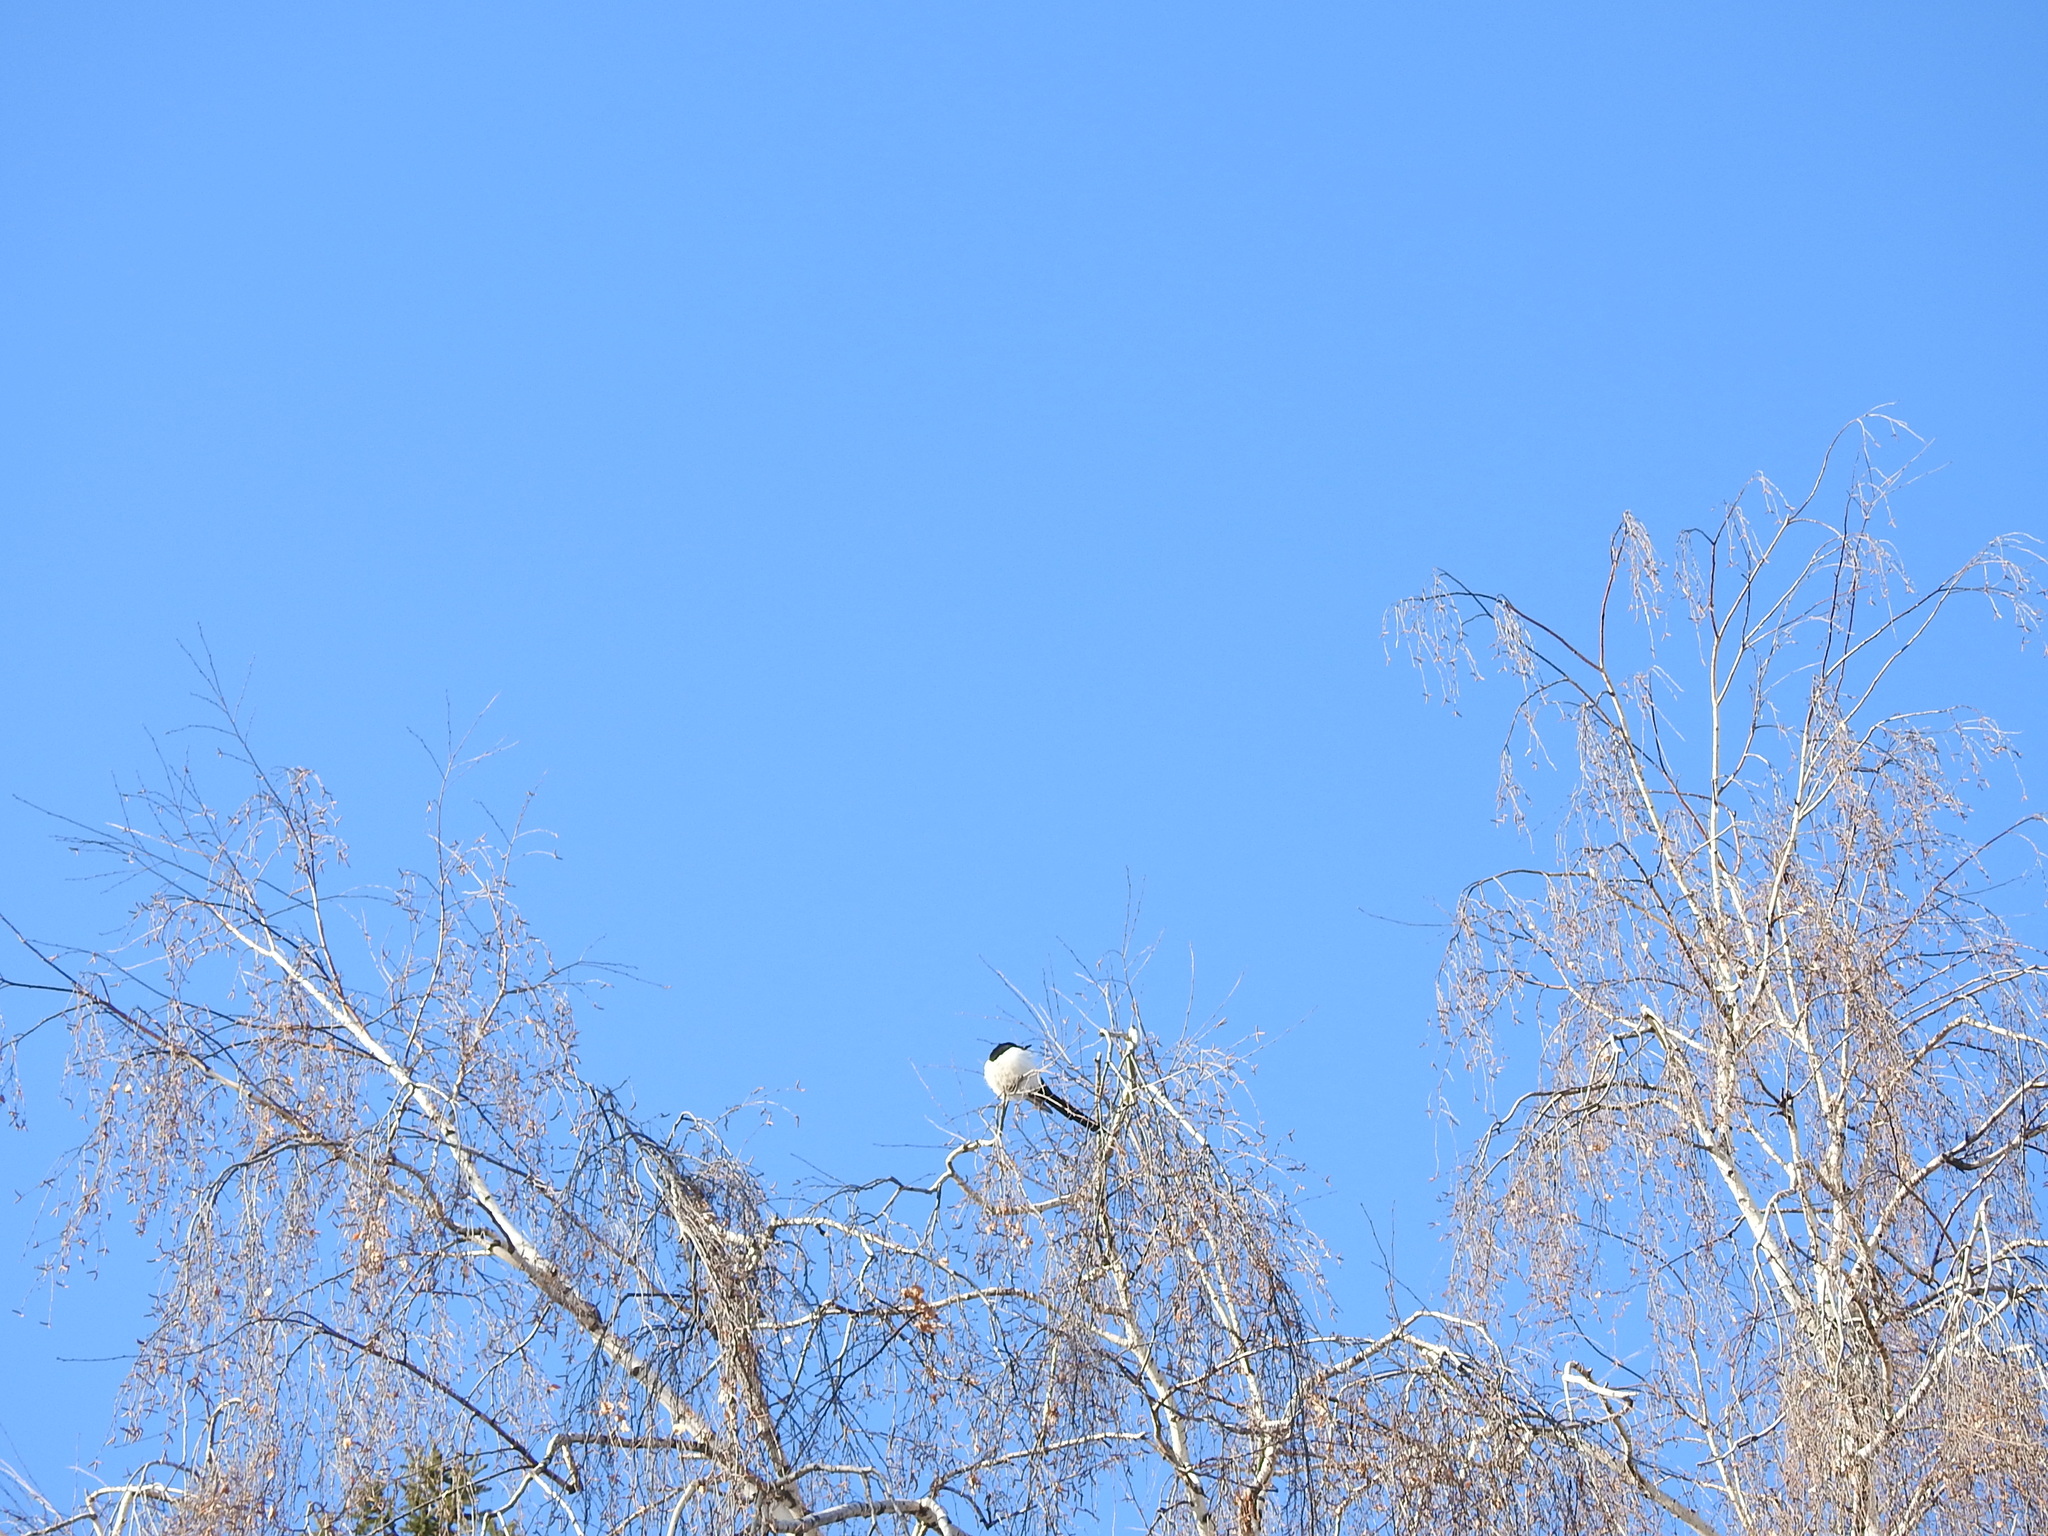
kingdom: Animalia
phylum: Chordata
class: Aves
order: Passeriformes
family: Corvidae
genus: Pica
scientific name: Pica pica
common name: Eurasian magpie
